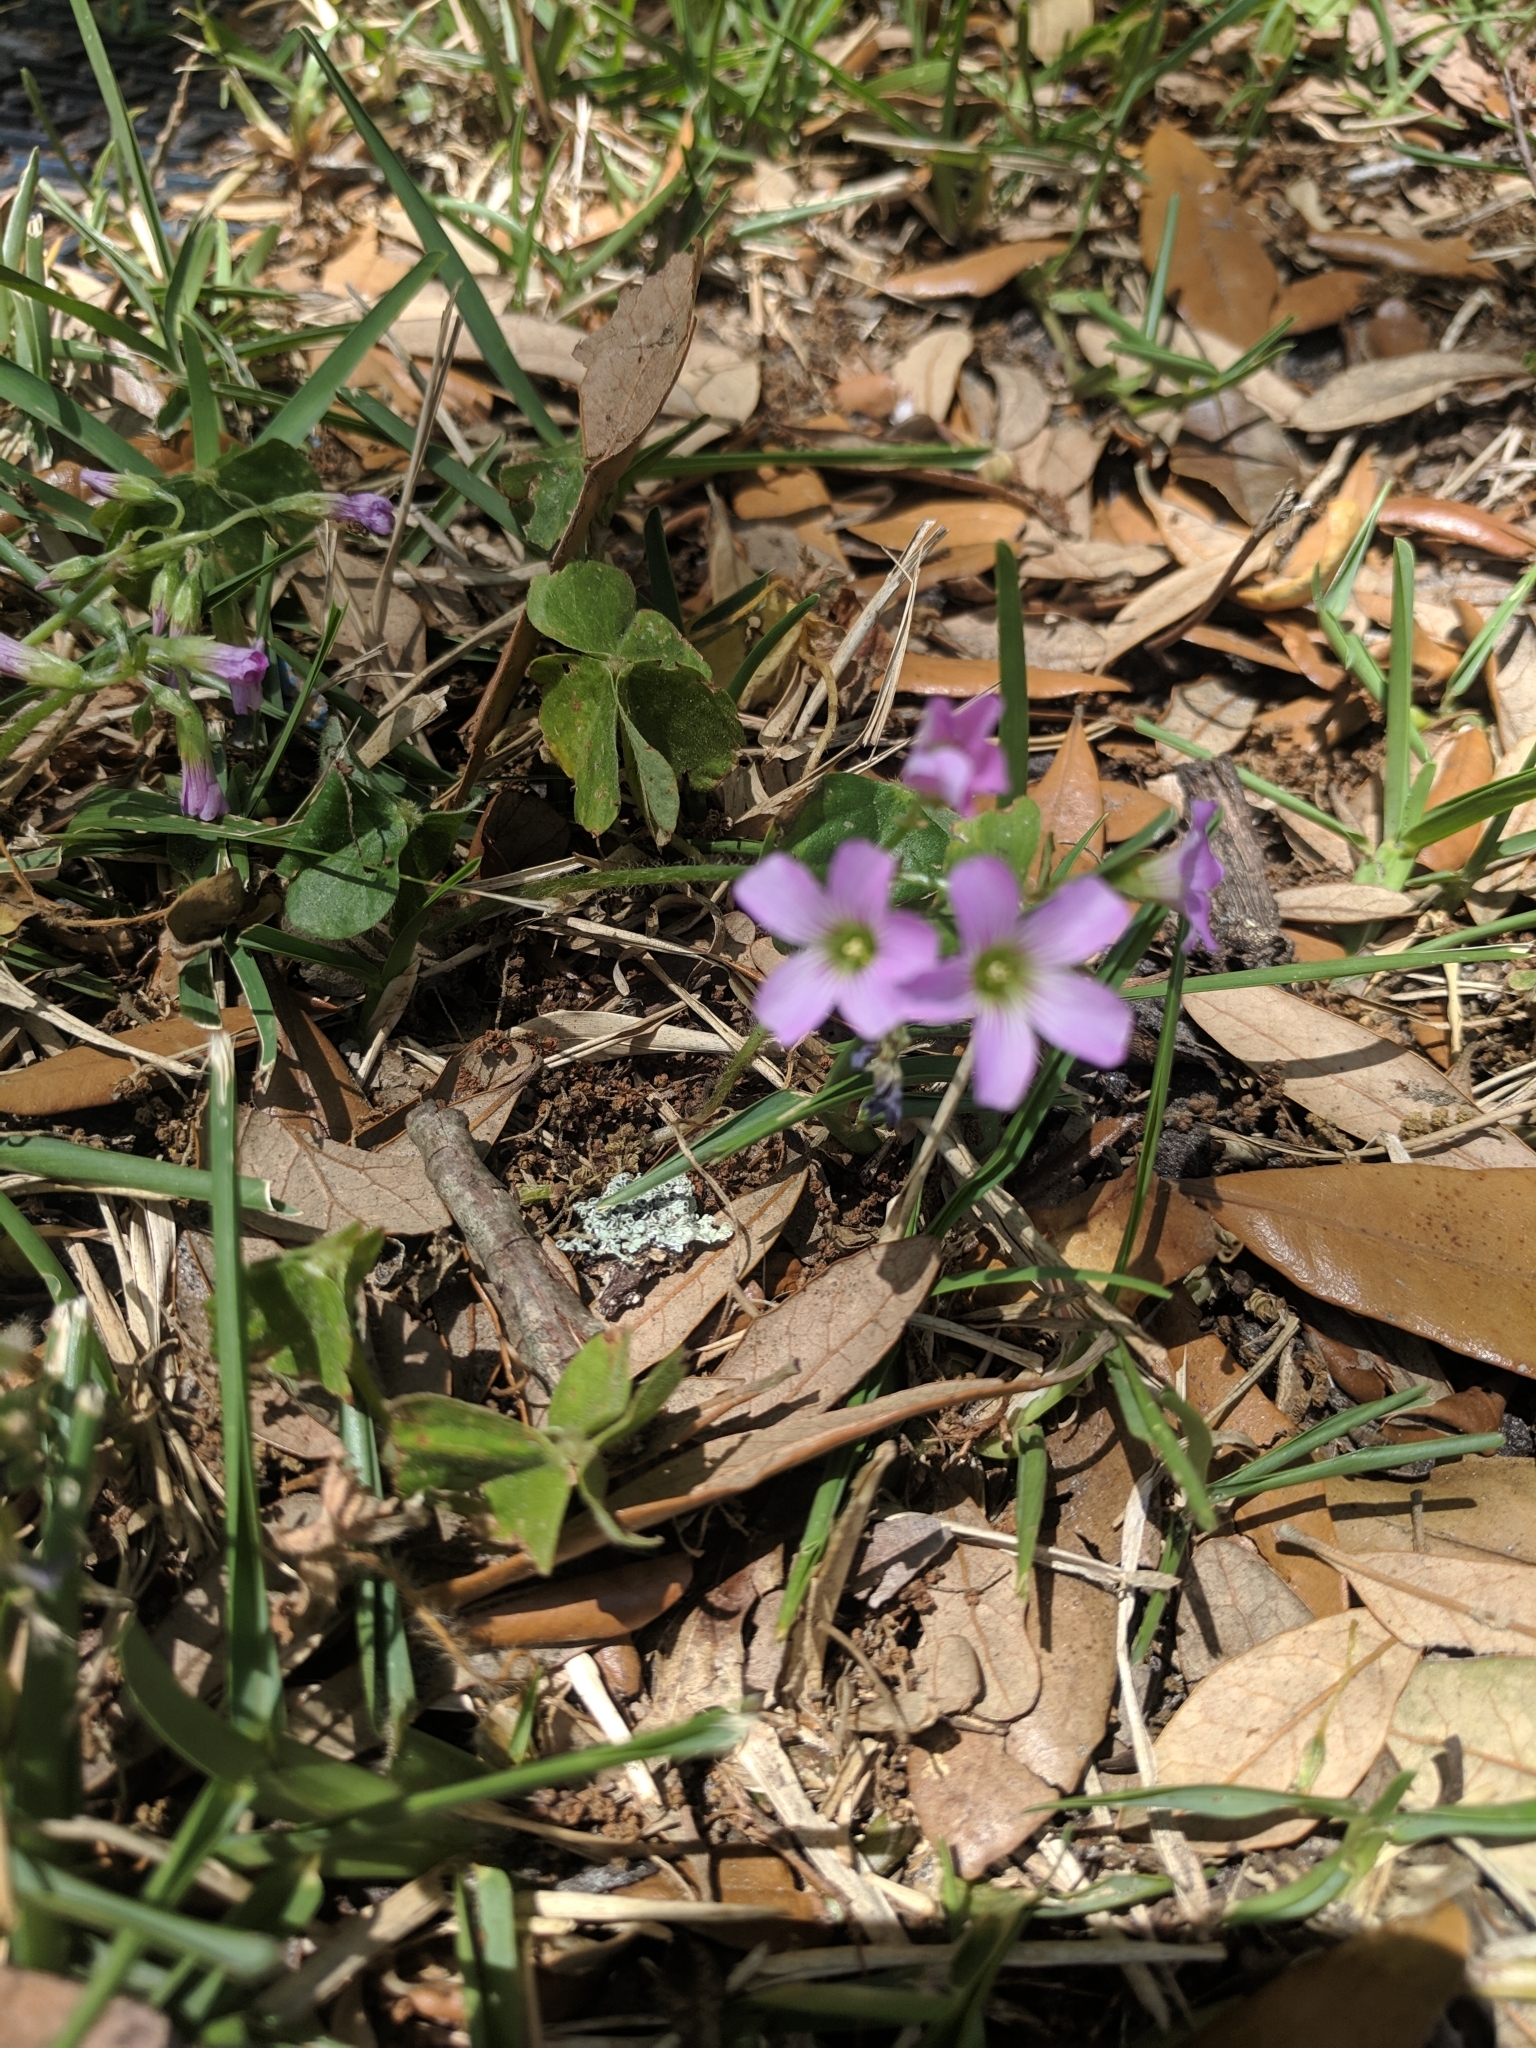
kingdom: Plantae
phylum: Tracheophyta
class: Magnoliopsida
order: Oxalidales
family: Oxalidaceae
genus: Oxalis
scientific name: Oxalis debilis
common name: Large-flowered pink-sorrel
